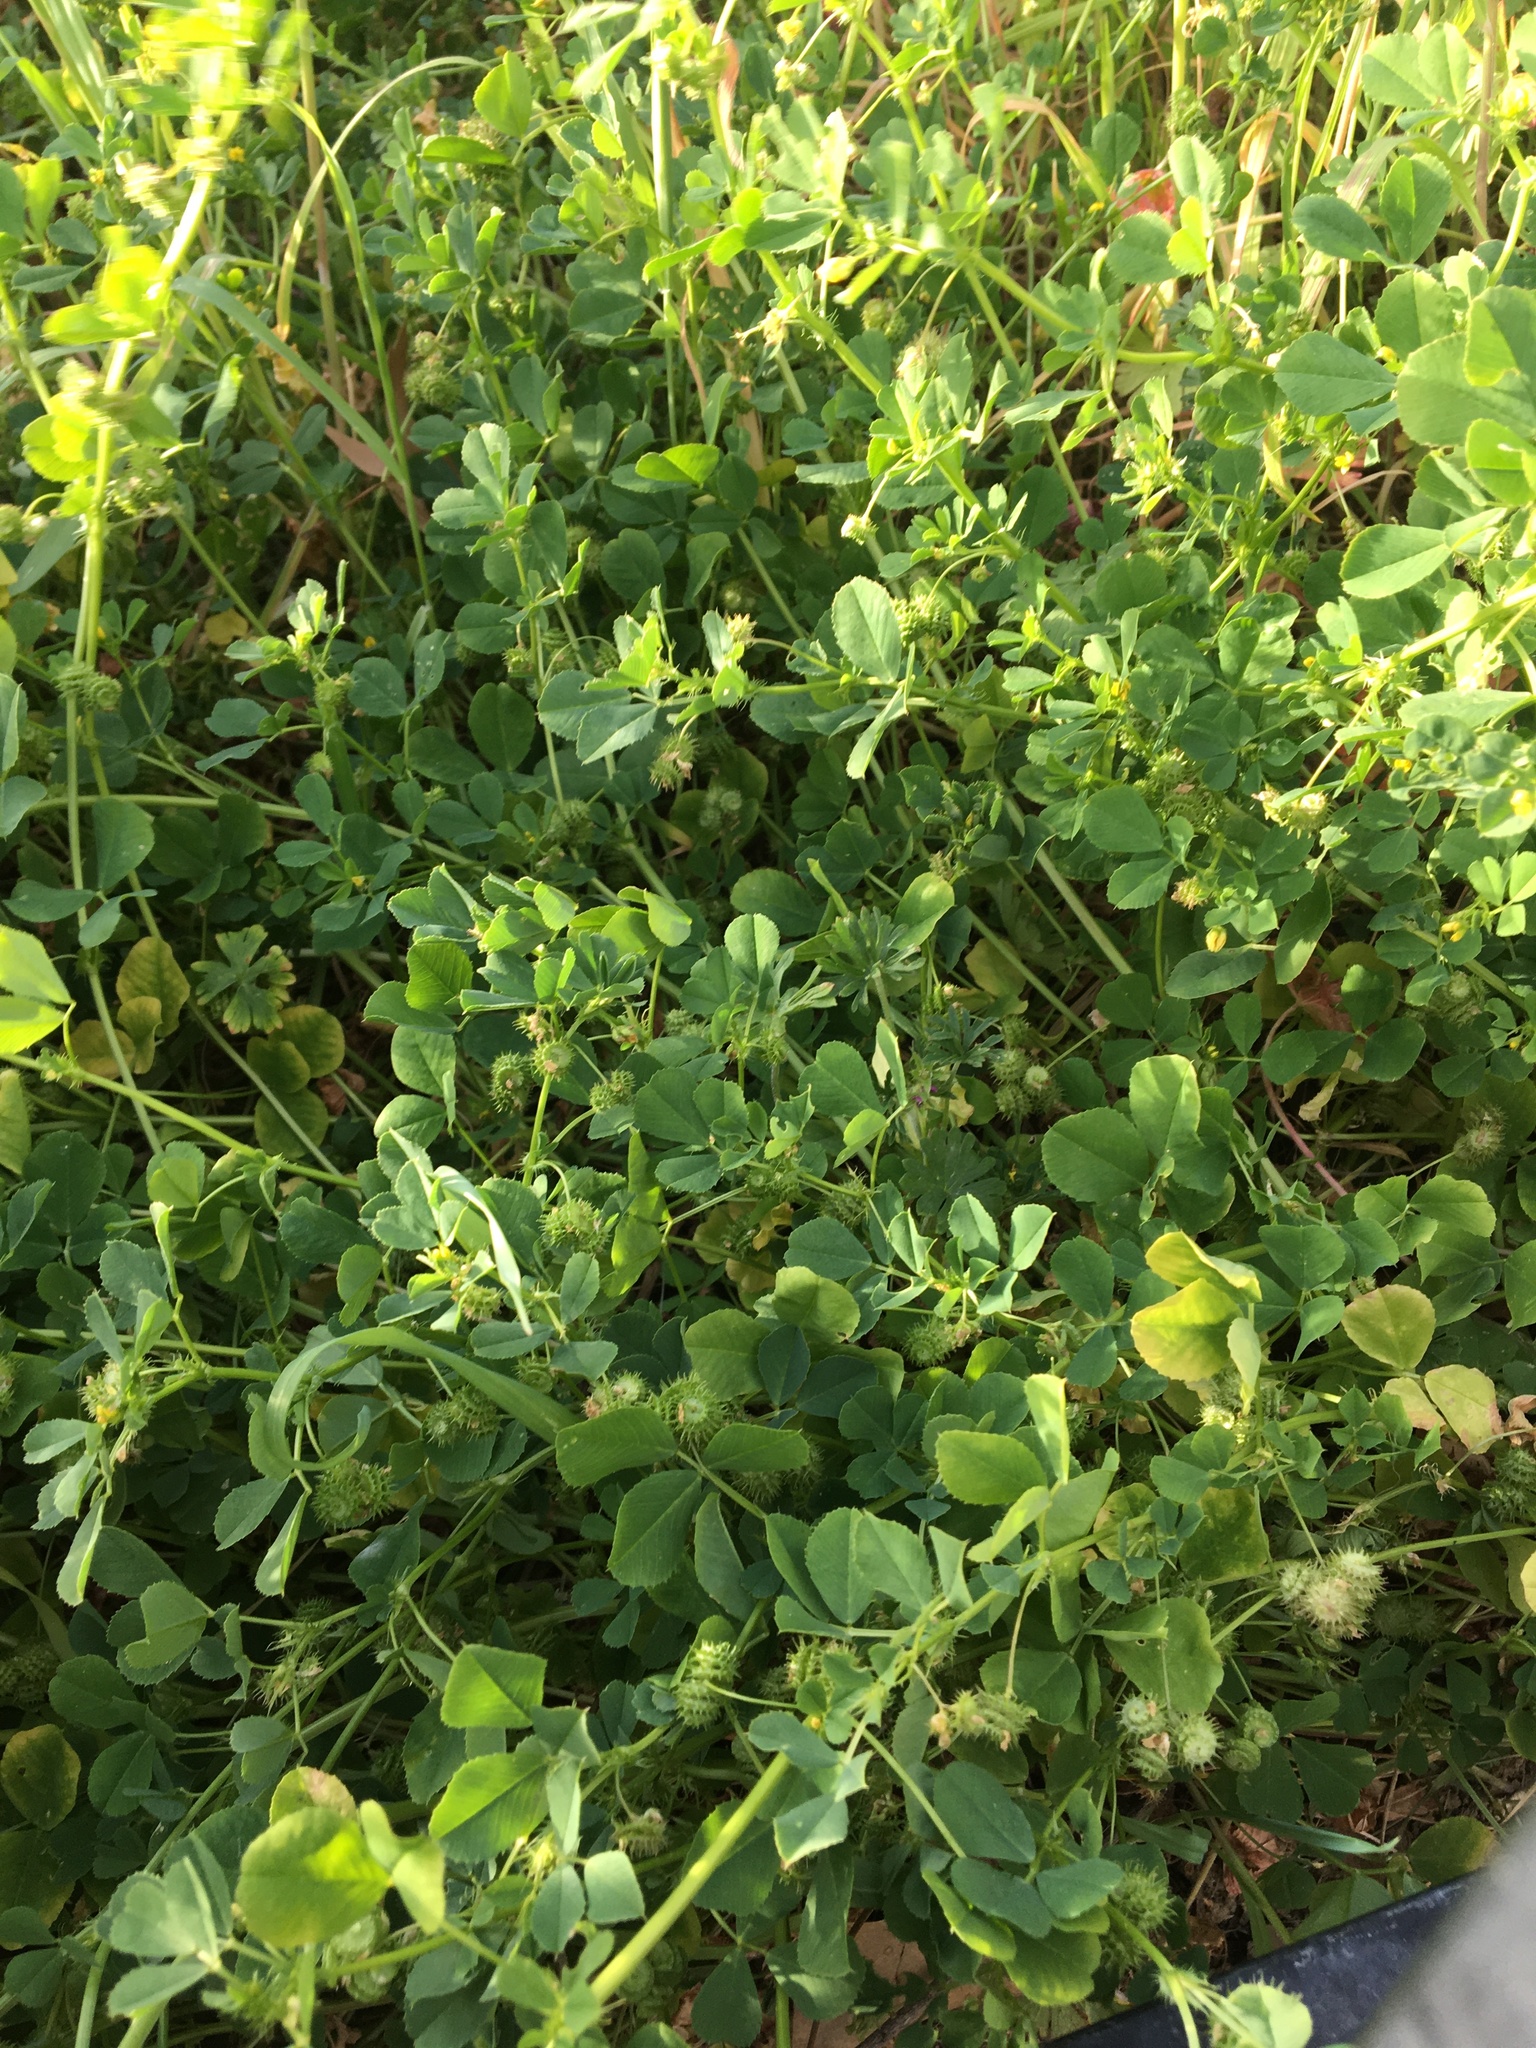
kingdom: Plantae
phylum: Tracheophyta
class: Magnoliopsida
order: Fabales
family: Fabaceae
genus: Medicago
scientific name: Medicago polymorpha
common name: Burclover
